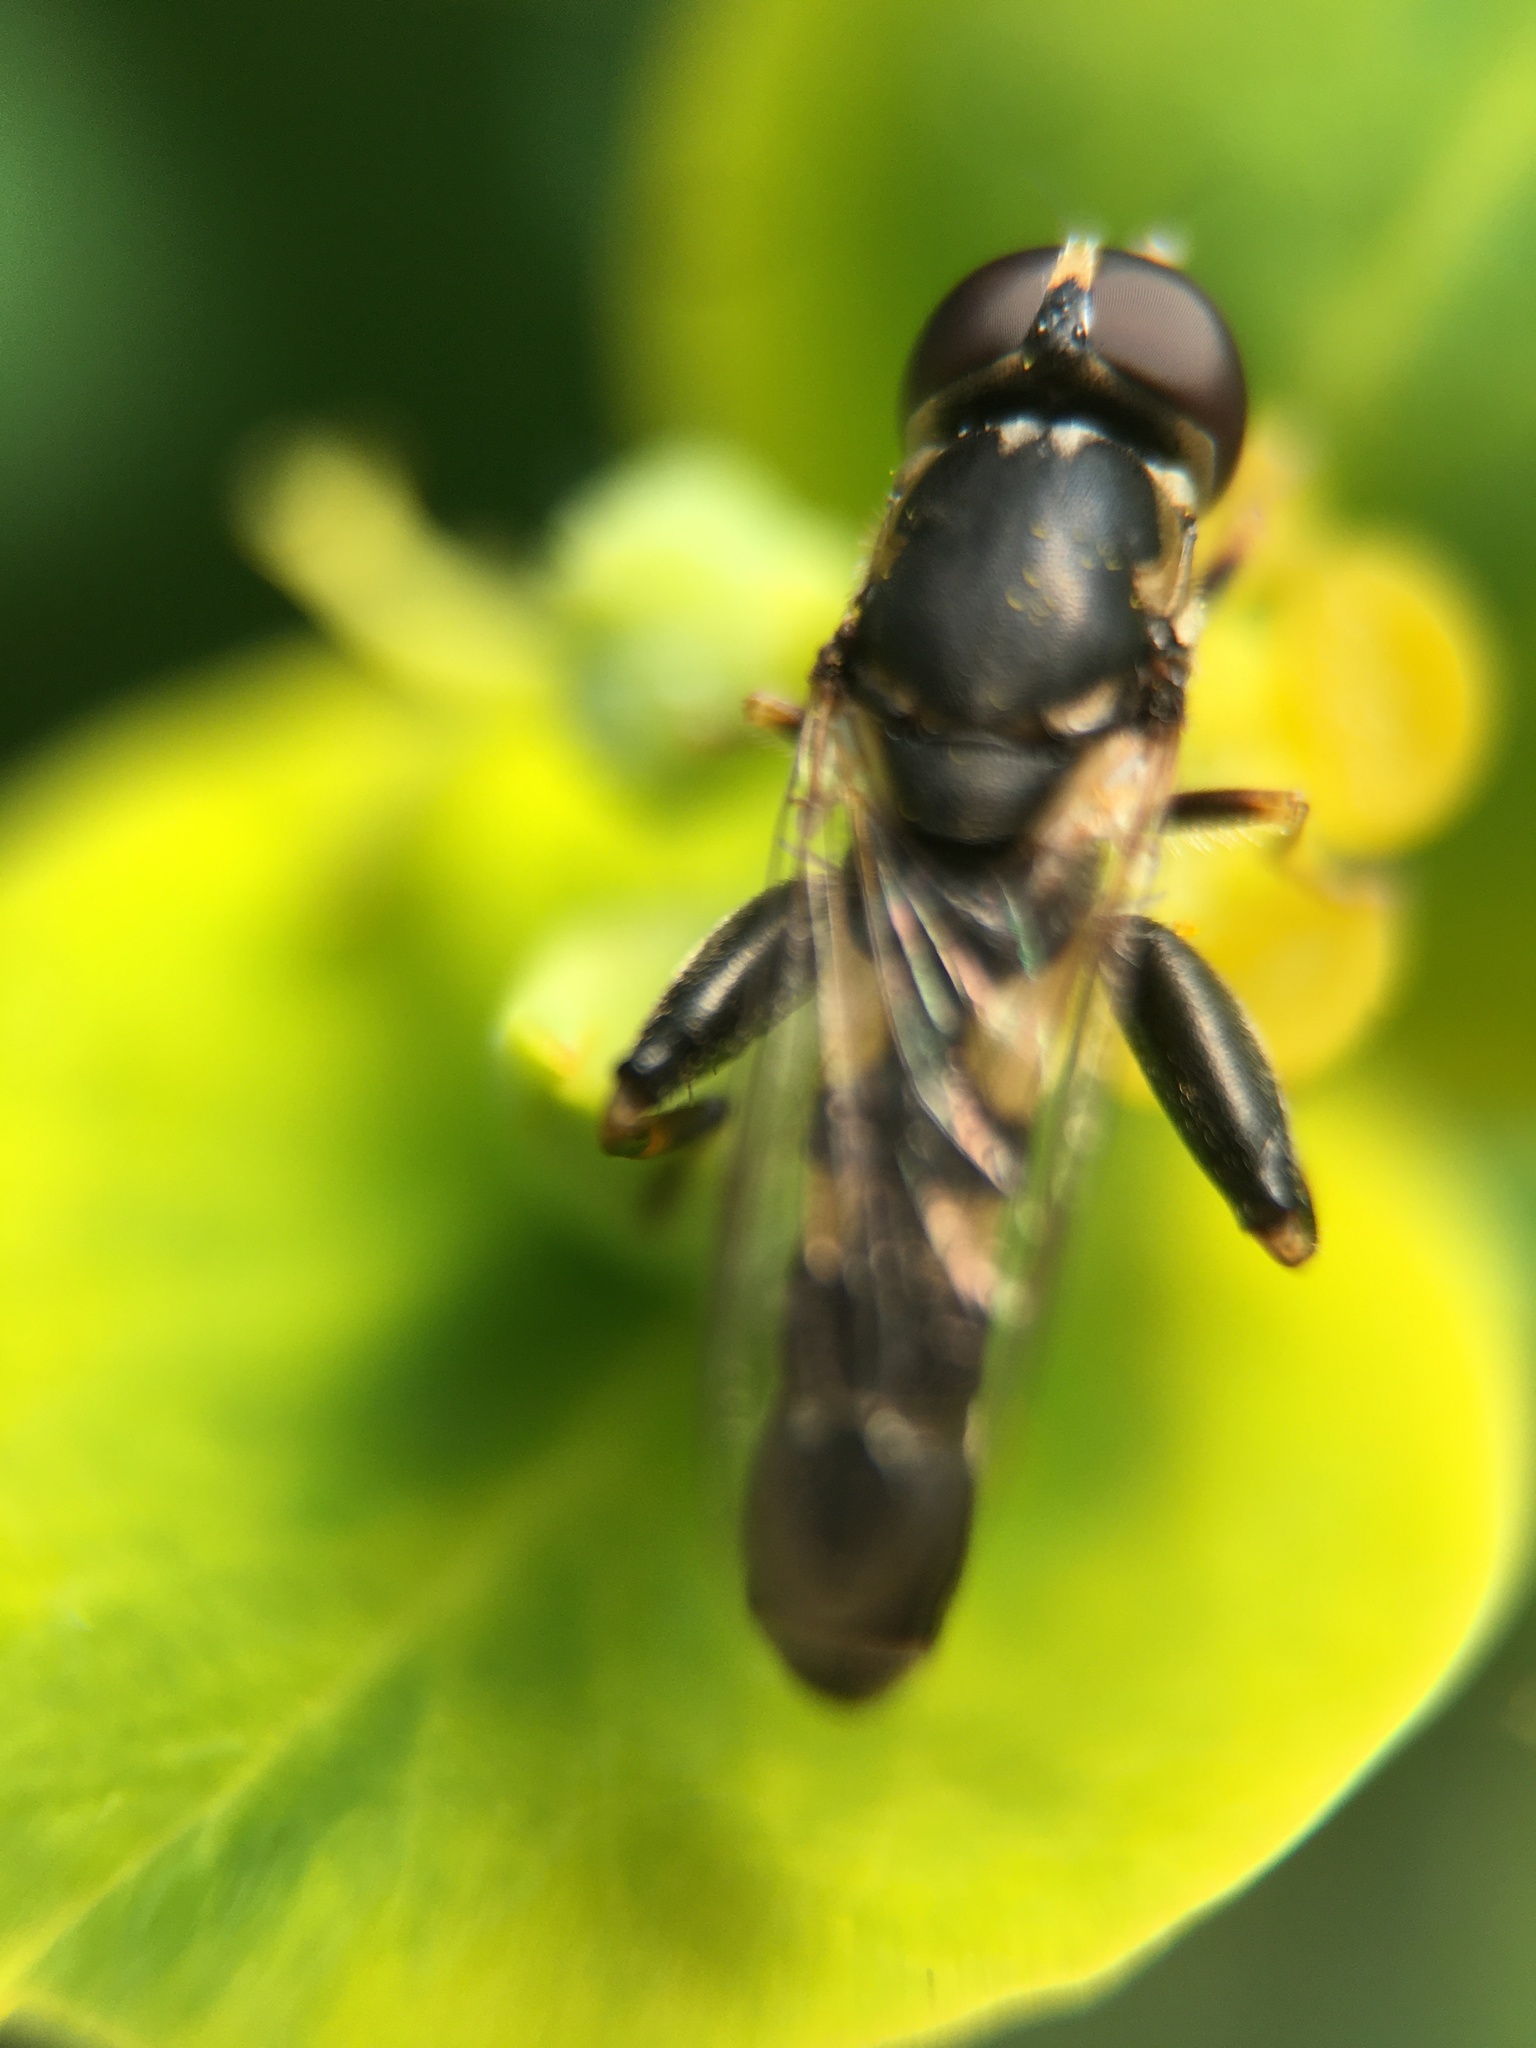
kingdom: Animalia
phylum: Arthropoda
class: Insecta
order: Diptera
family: Syrphidae
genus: Syritta
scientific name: Syritta pipiens
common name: Hover fly
